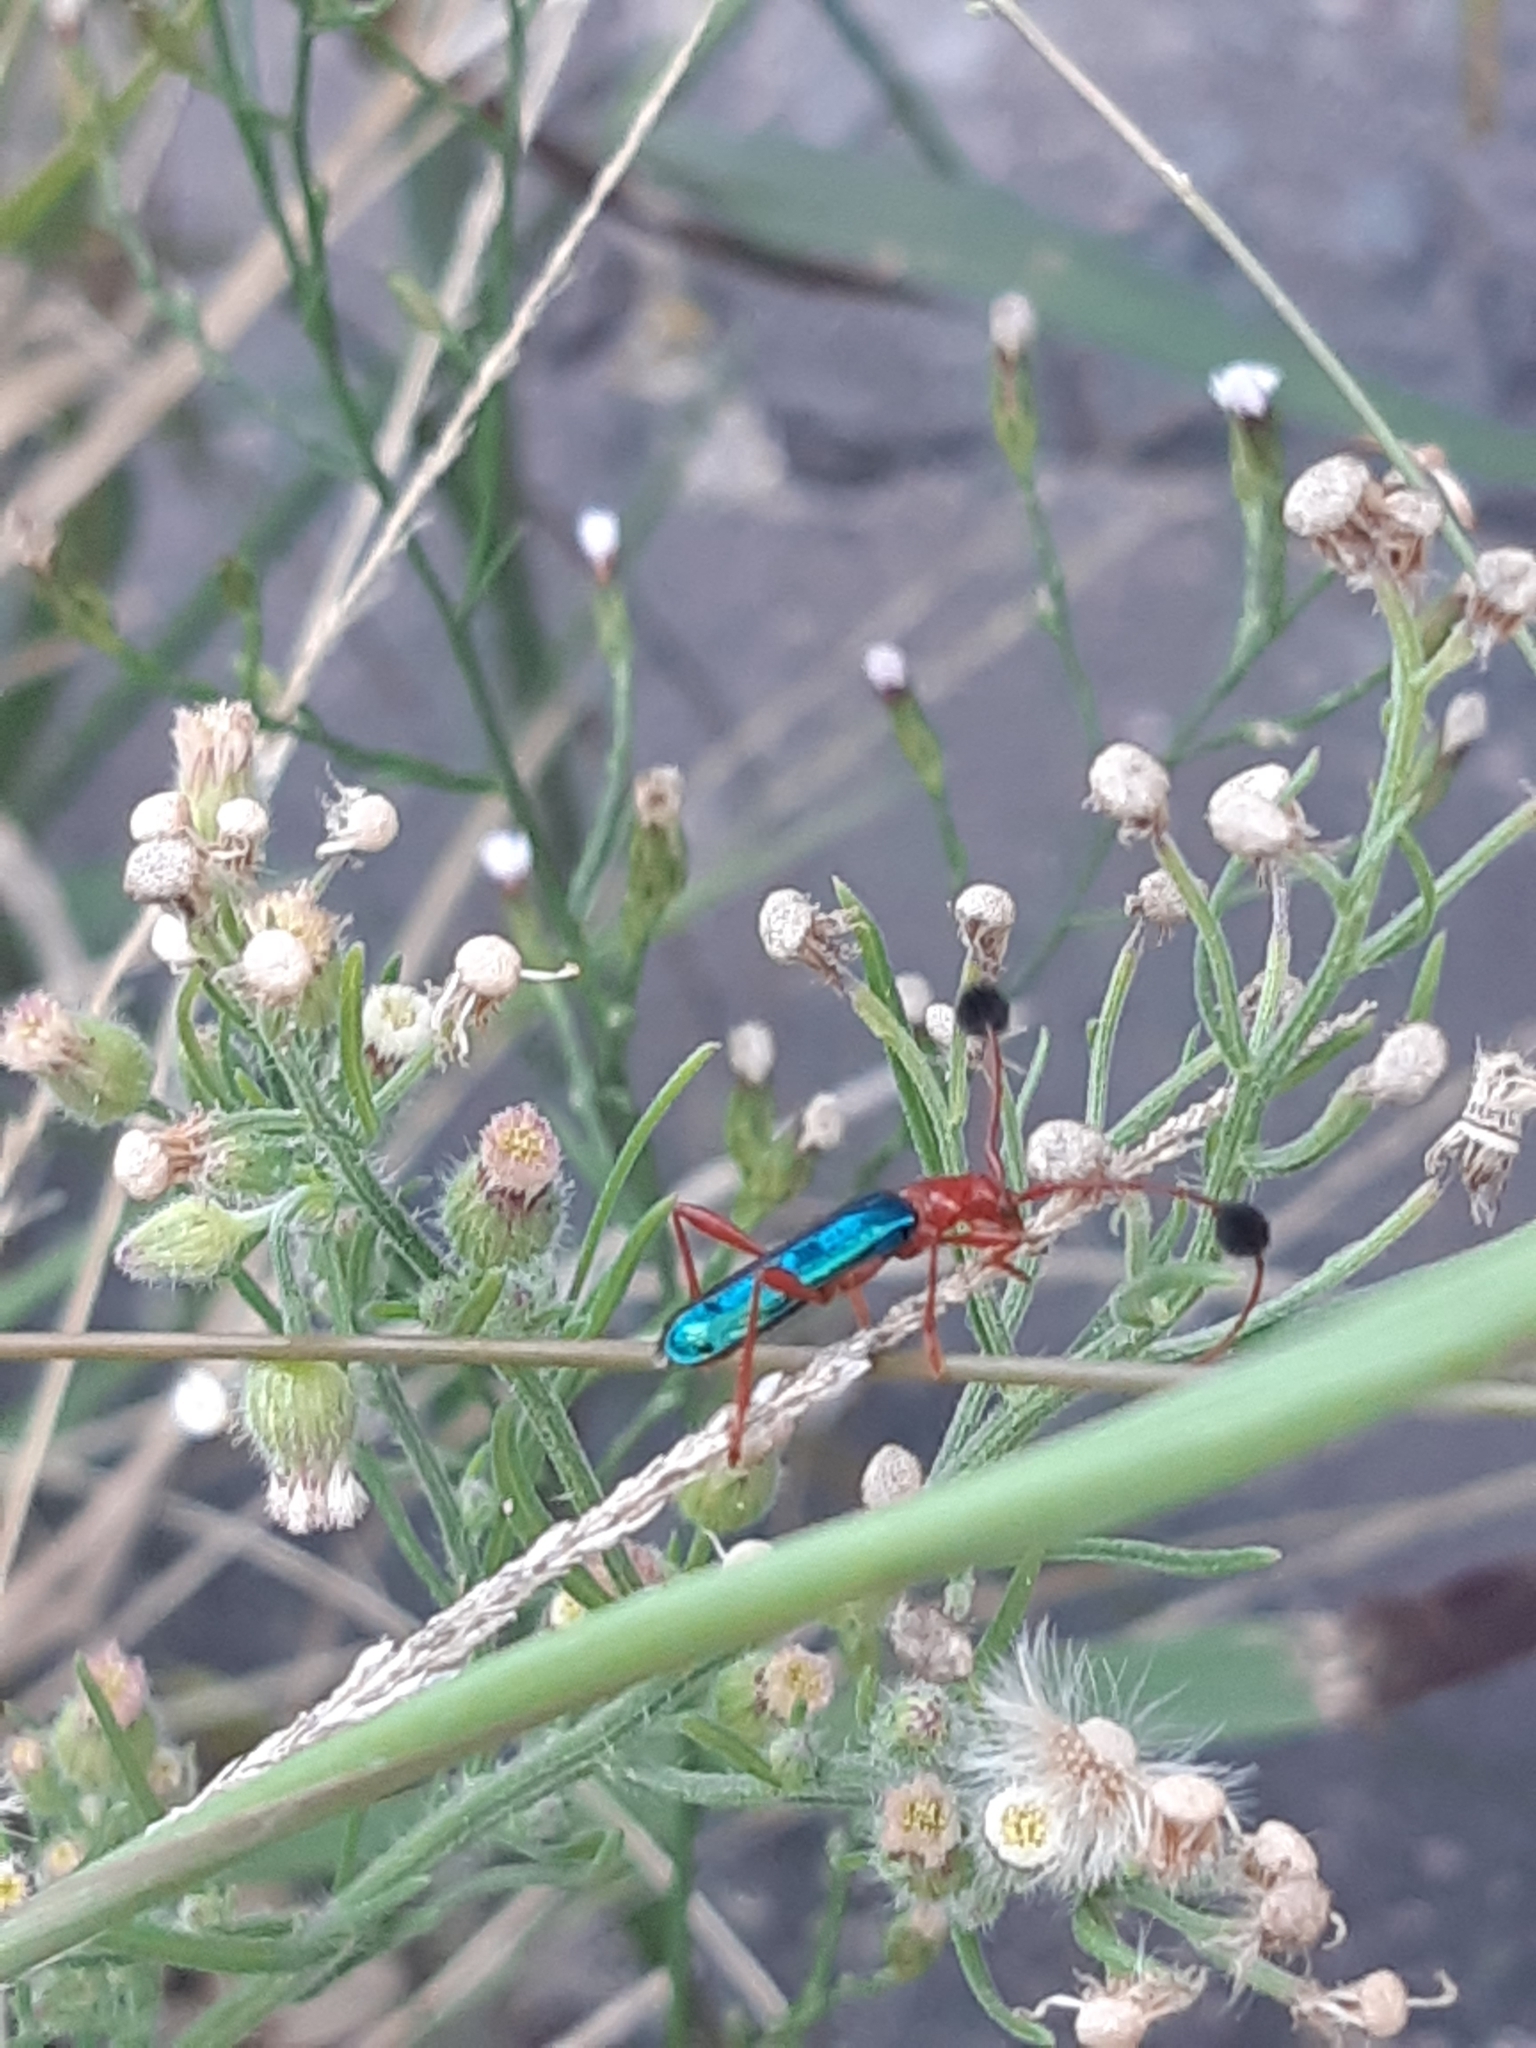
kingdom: Animalia
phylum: Arthropoda
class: Insecta
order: Coleoptera
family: Cerambycidae
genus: Paromoeocerus
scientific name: Paromoeocerus barbicornis
